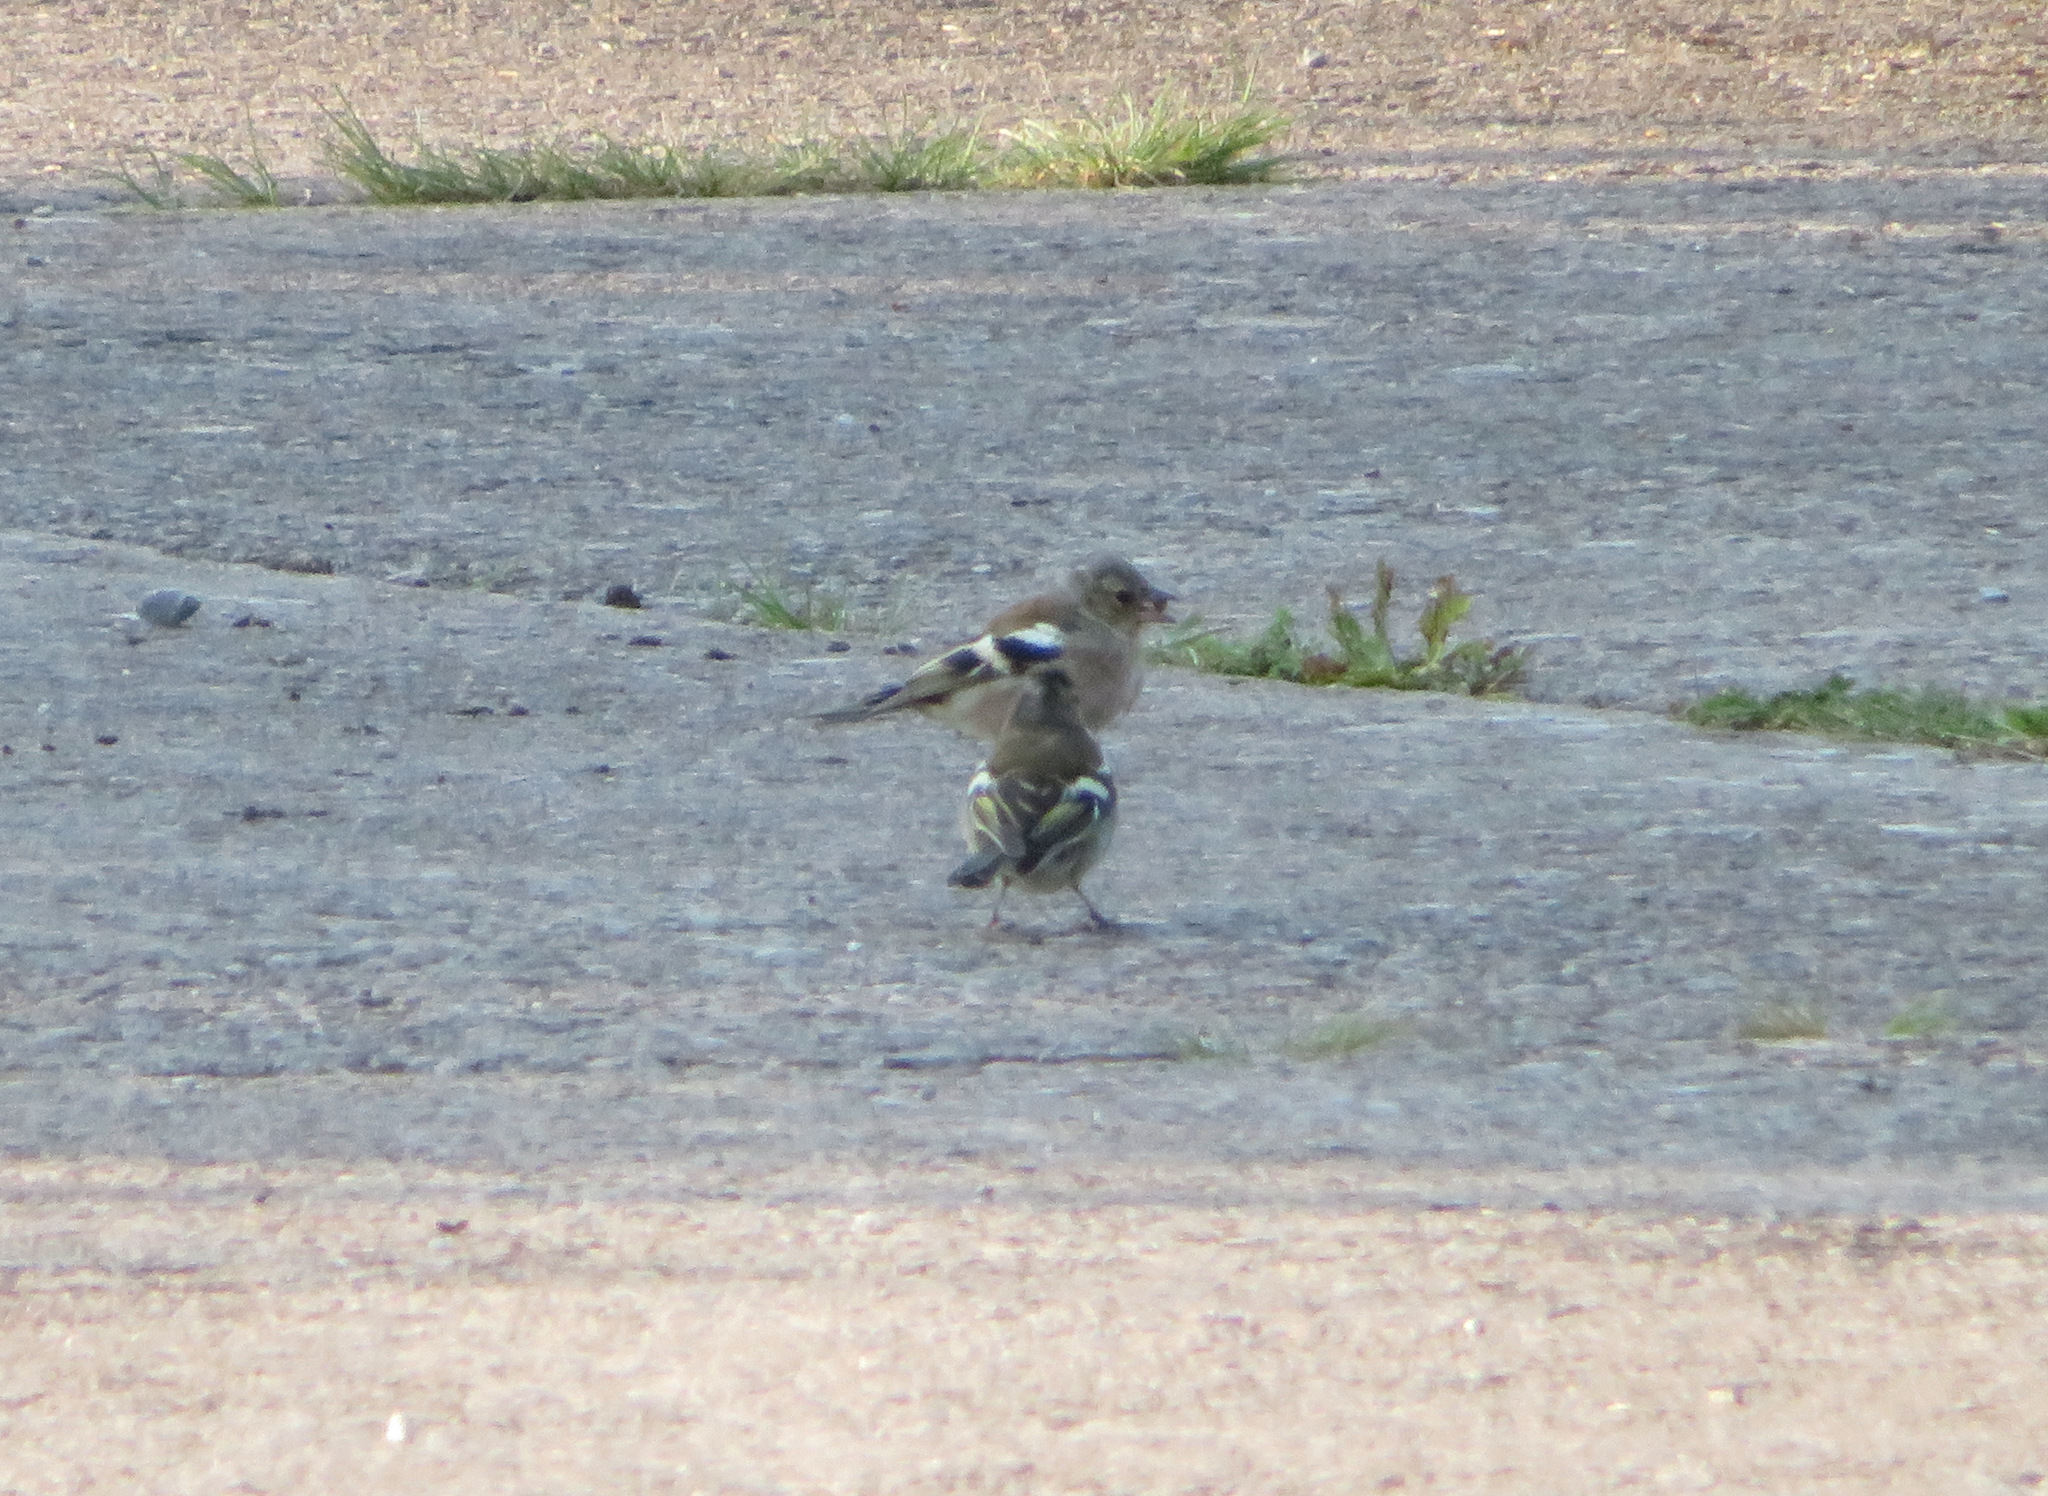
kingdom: Animalia
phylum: Chordata
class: Aves
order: Passeriformes
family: Fringillidae
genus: Fringilla
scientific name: Fringilla coelebs
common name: Common chaffinch
